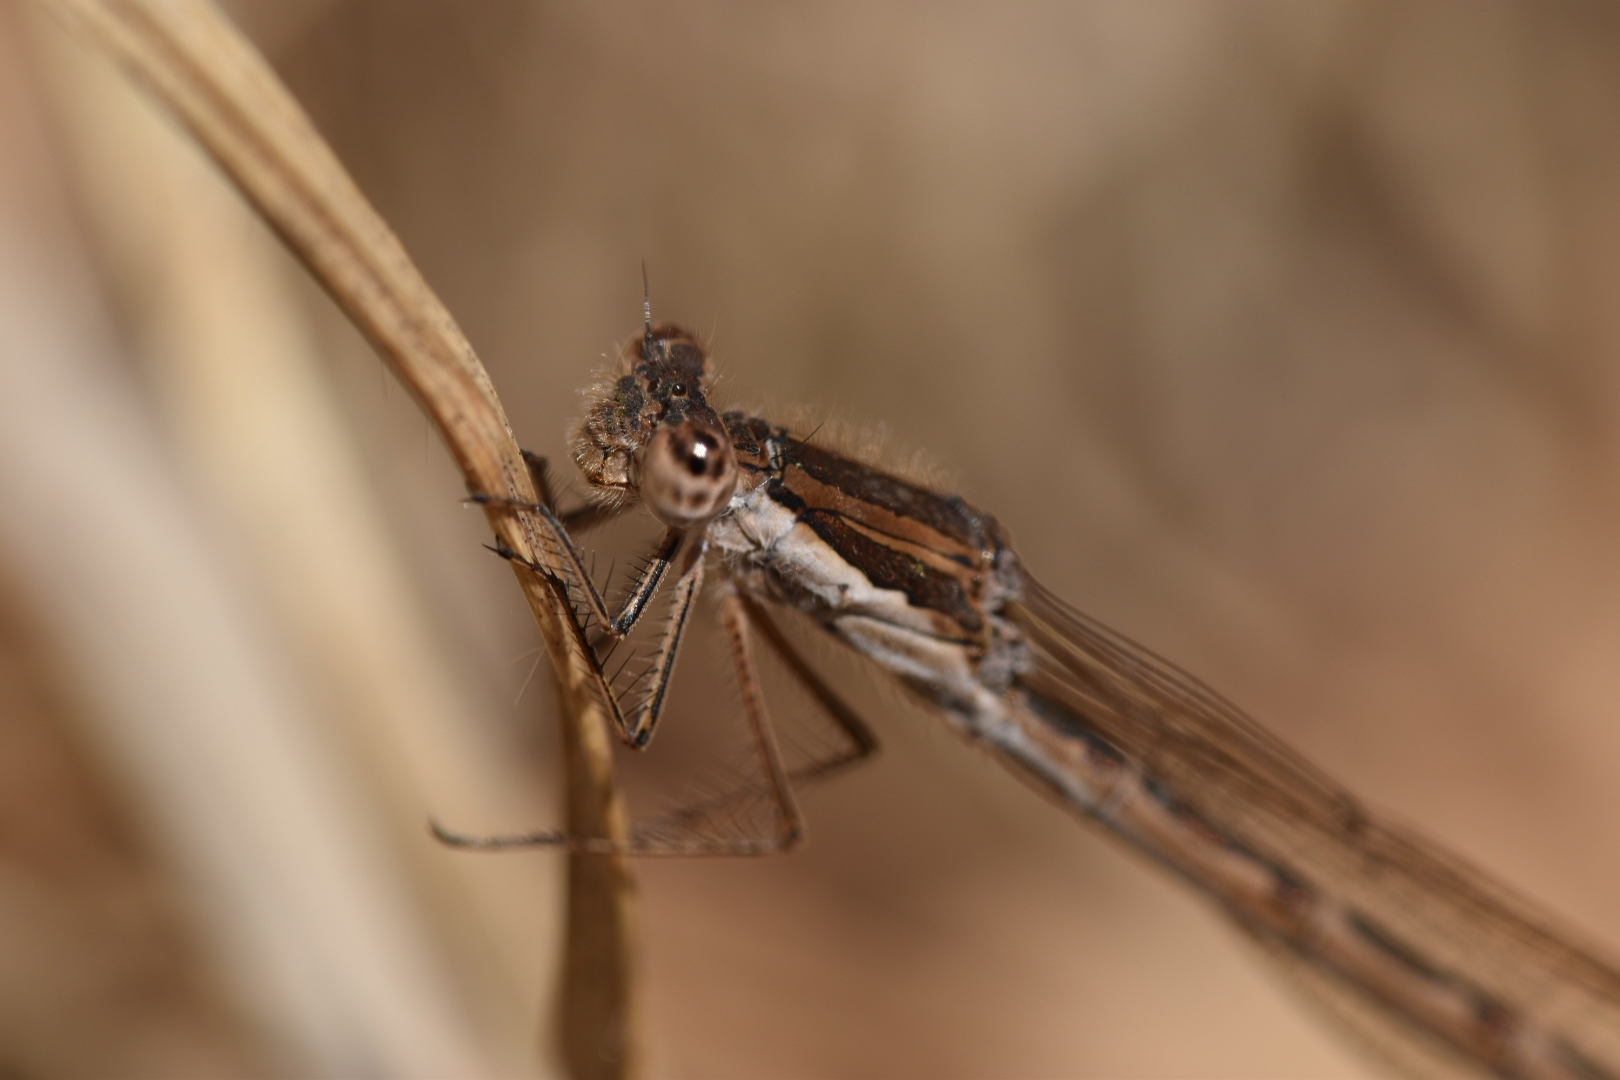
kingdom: Animalia
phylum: Arthropoda
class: Insecta
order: Odonata
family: Lestidae
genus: Sympecma
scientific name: Sympecma fusca
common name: Common winter damsel
